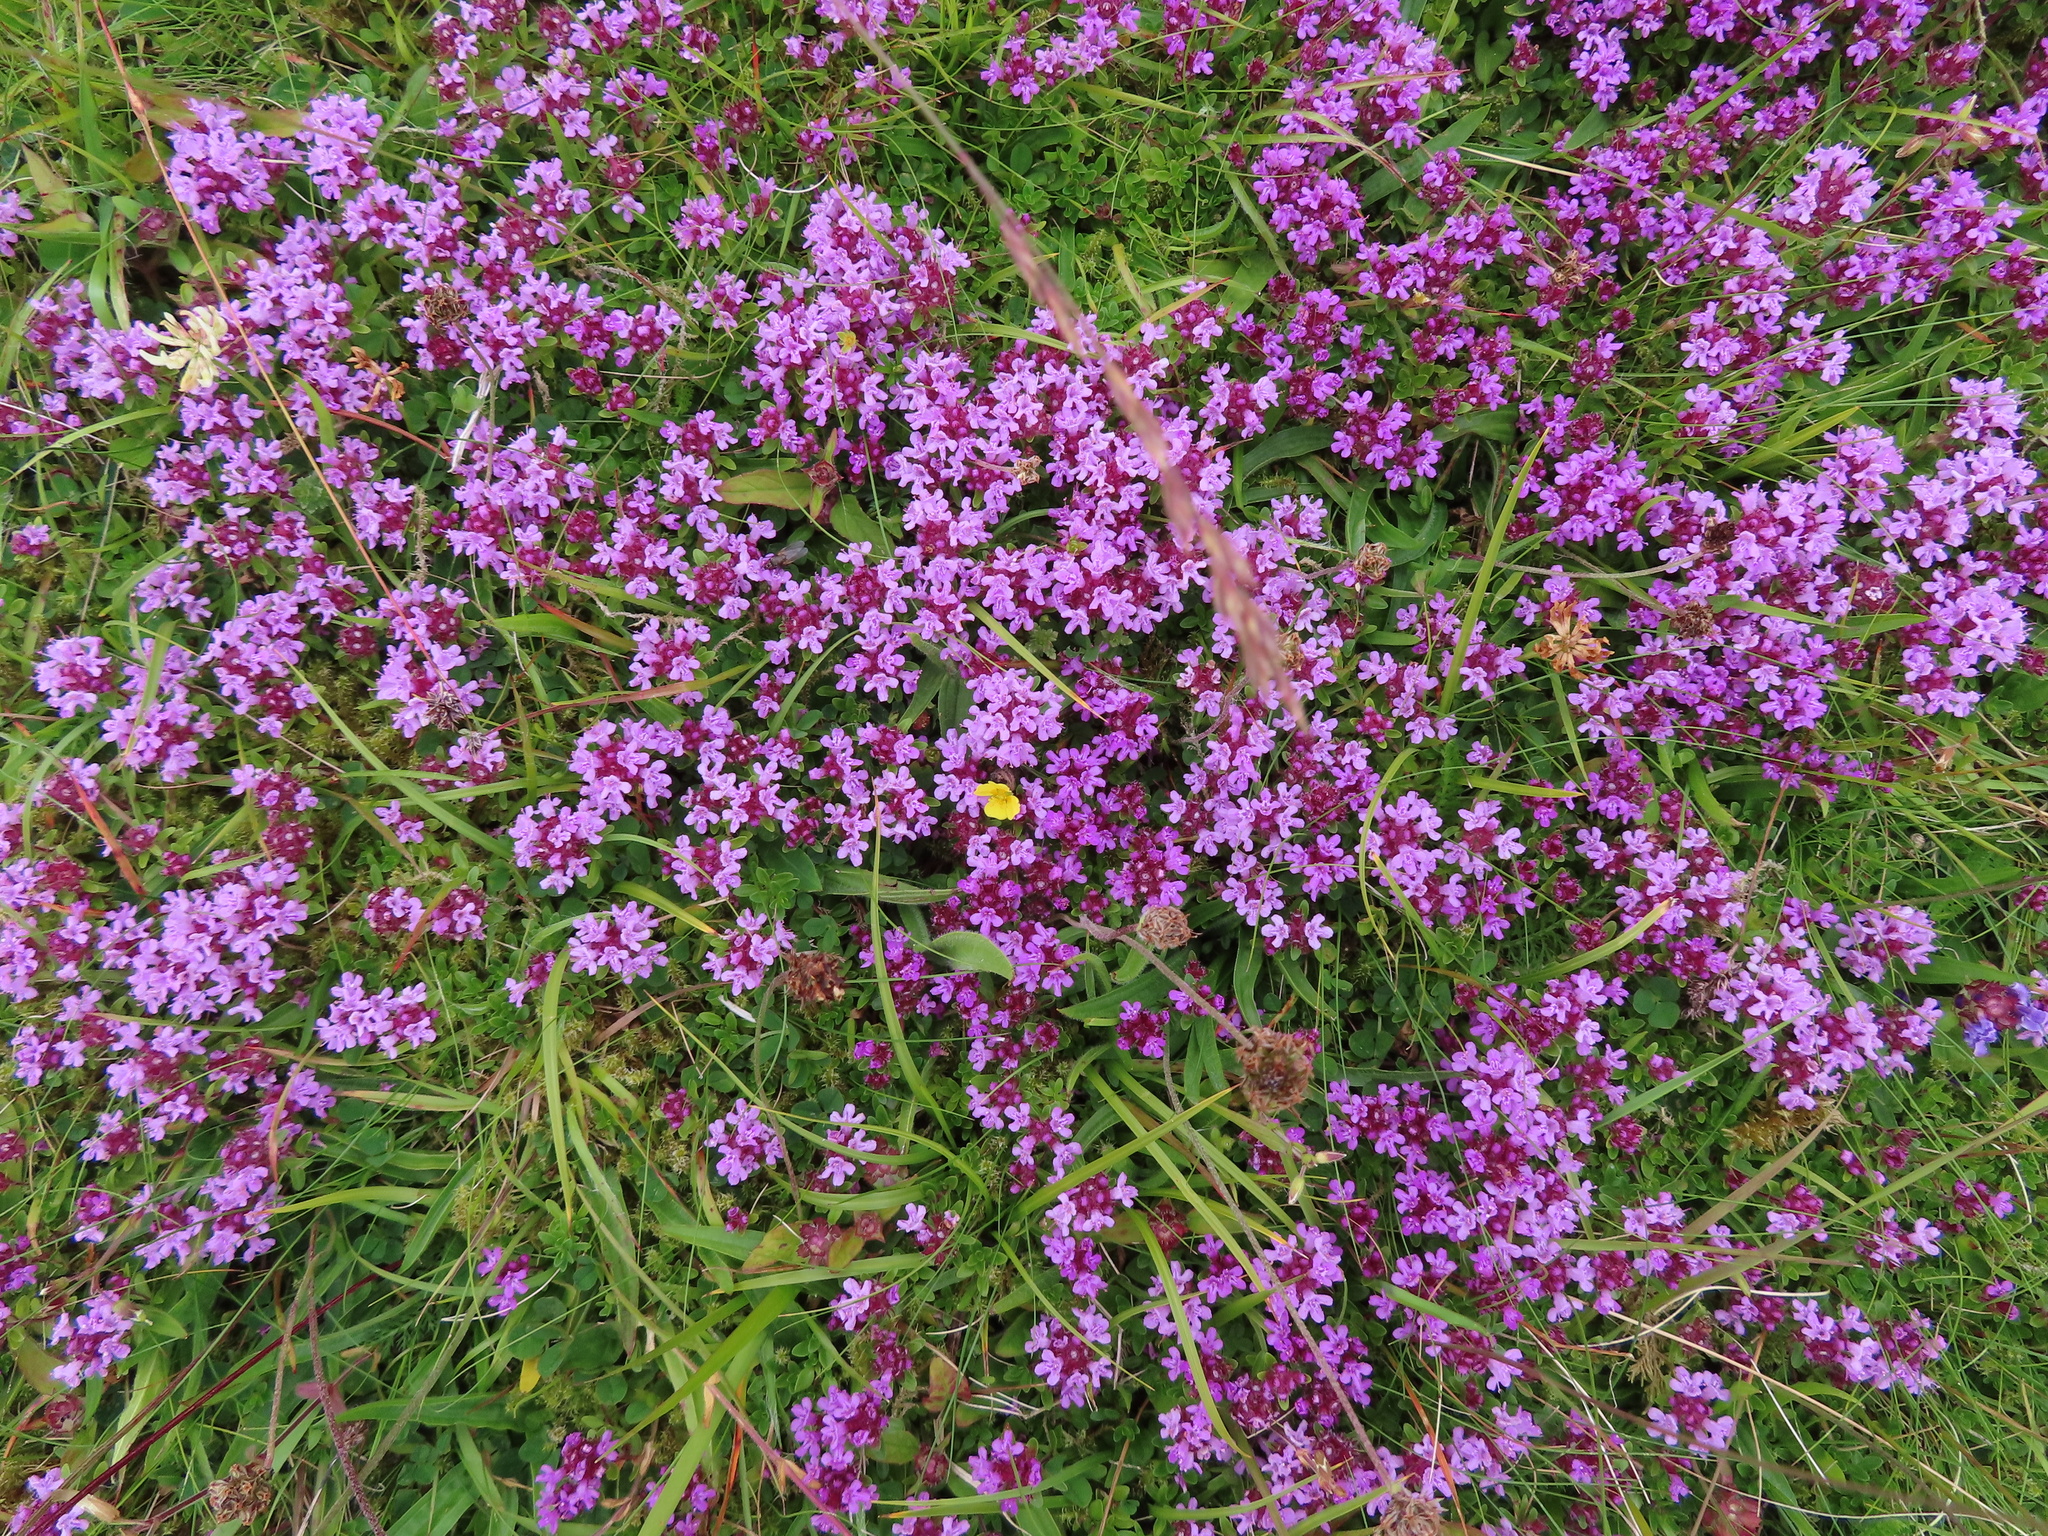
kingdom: Plantae
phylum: Tracheophyta
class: Magnoliopsida
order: Lamiales
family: Lamiaceae
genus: Thymus
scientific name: Thymus praecox
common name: Wild thyme
